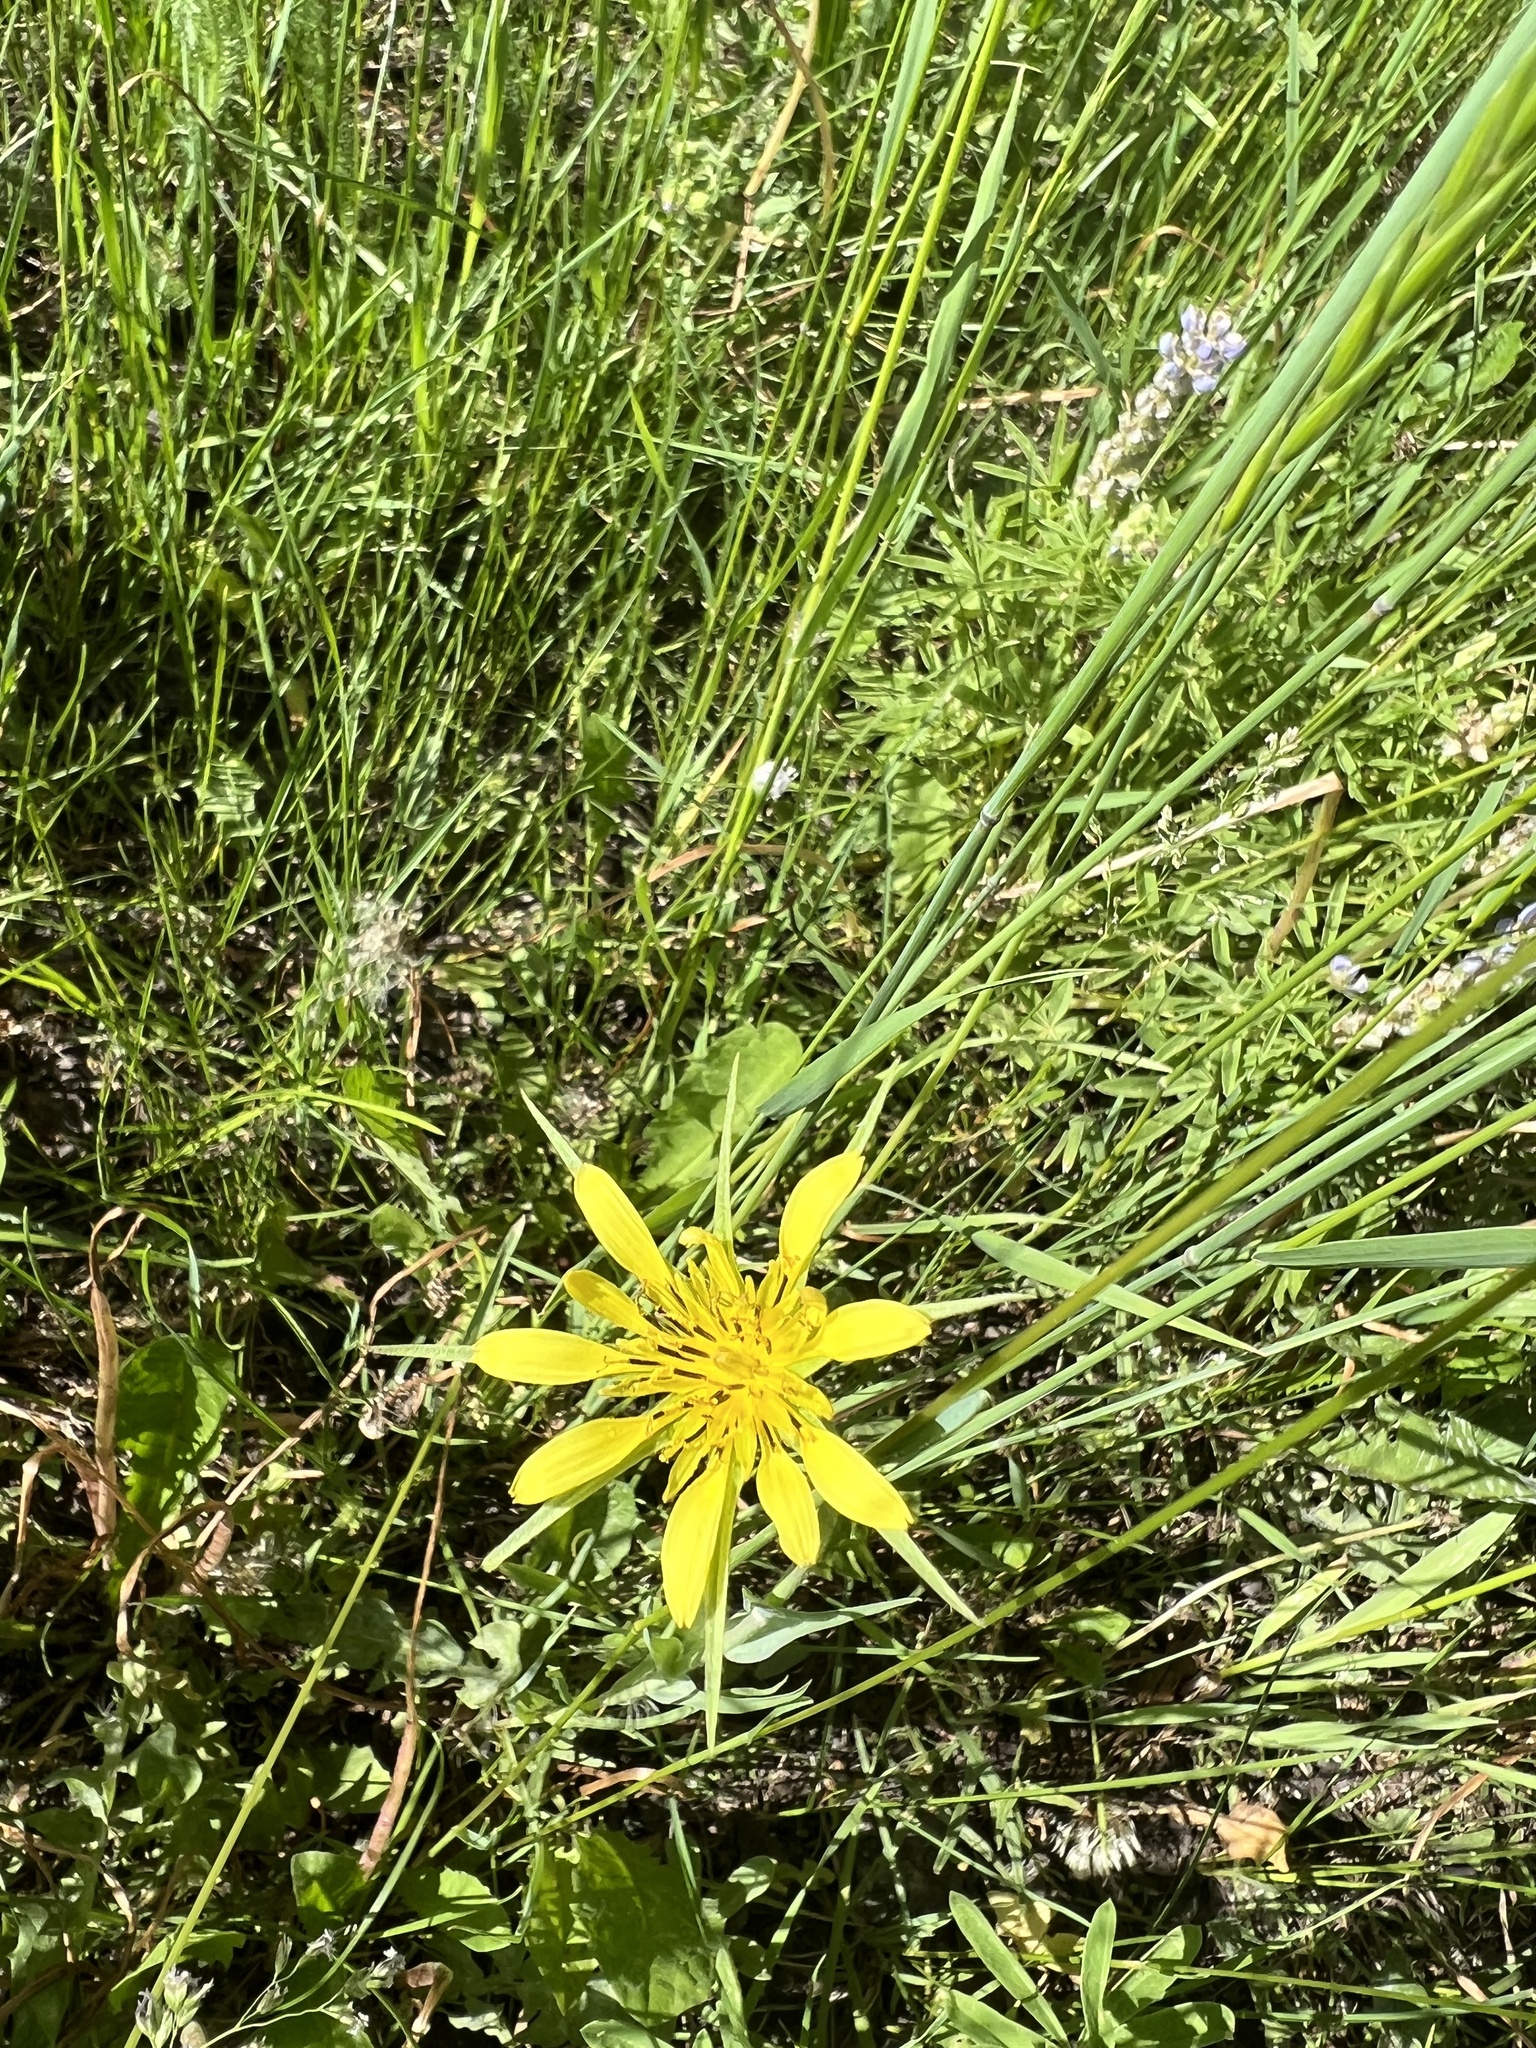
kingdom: Plantae
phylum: Tracheophyta
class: Magnoliopsida
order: Asterales
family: Asteraceae
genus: Tragopogon
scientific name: Tragopogon dubius
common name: Yellow salsify
